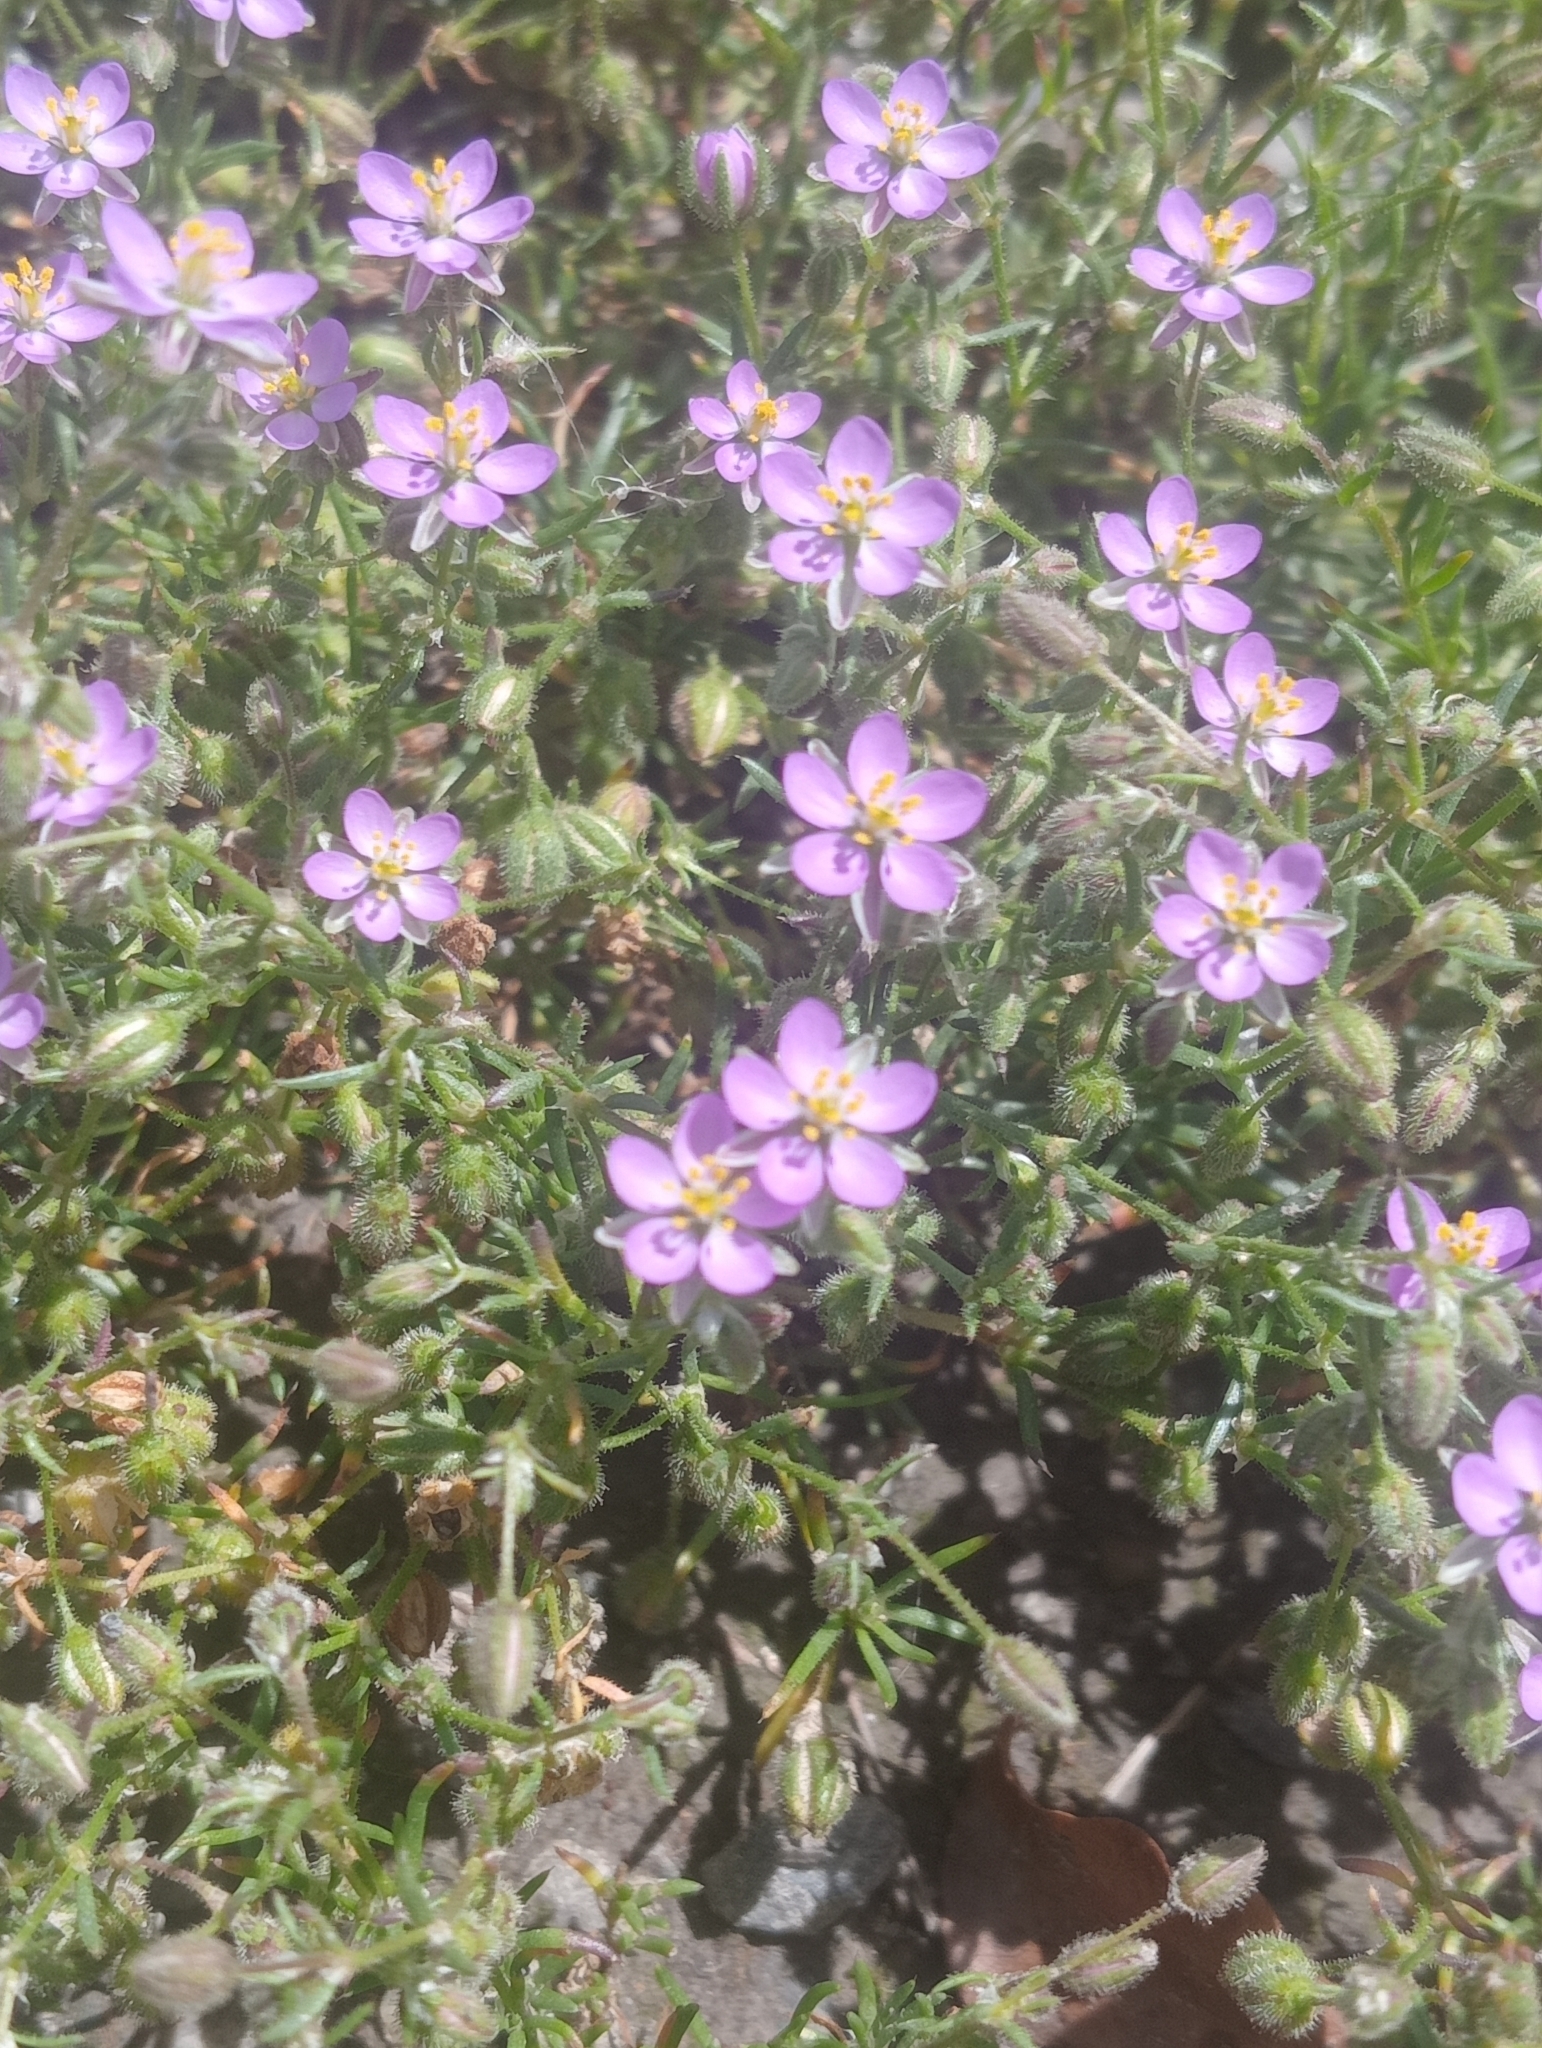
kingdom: Plantae
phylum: Tracheophyta
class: Magnoliopsida
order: Caryophyllales
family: Caryophyllaceae
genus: Spergularia
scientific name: Spergularia rubra
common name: Red sand-spurrey
